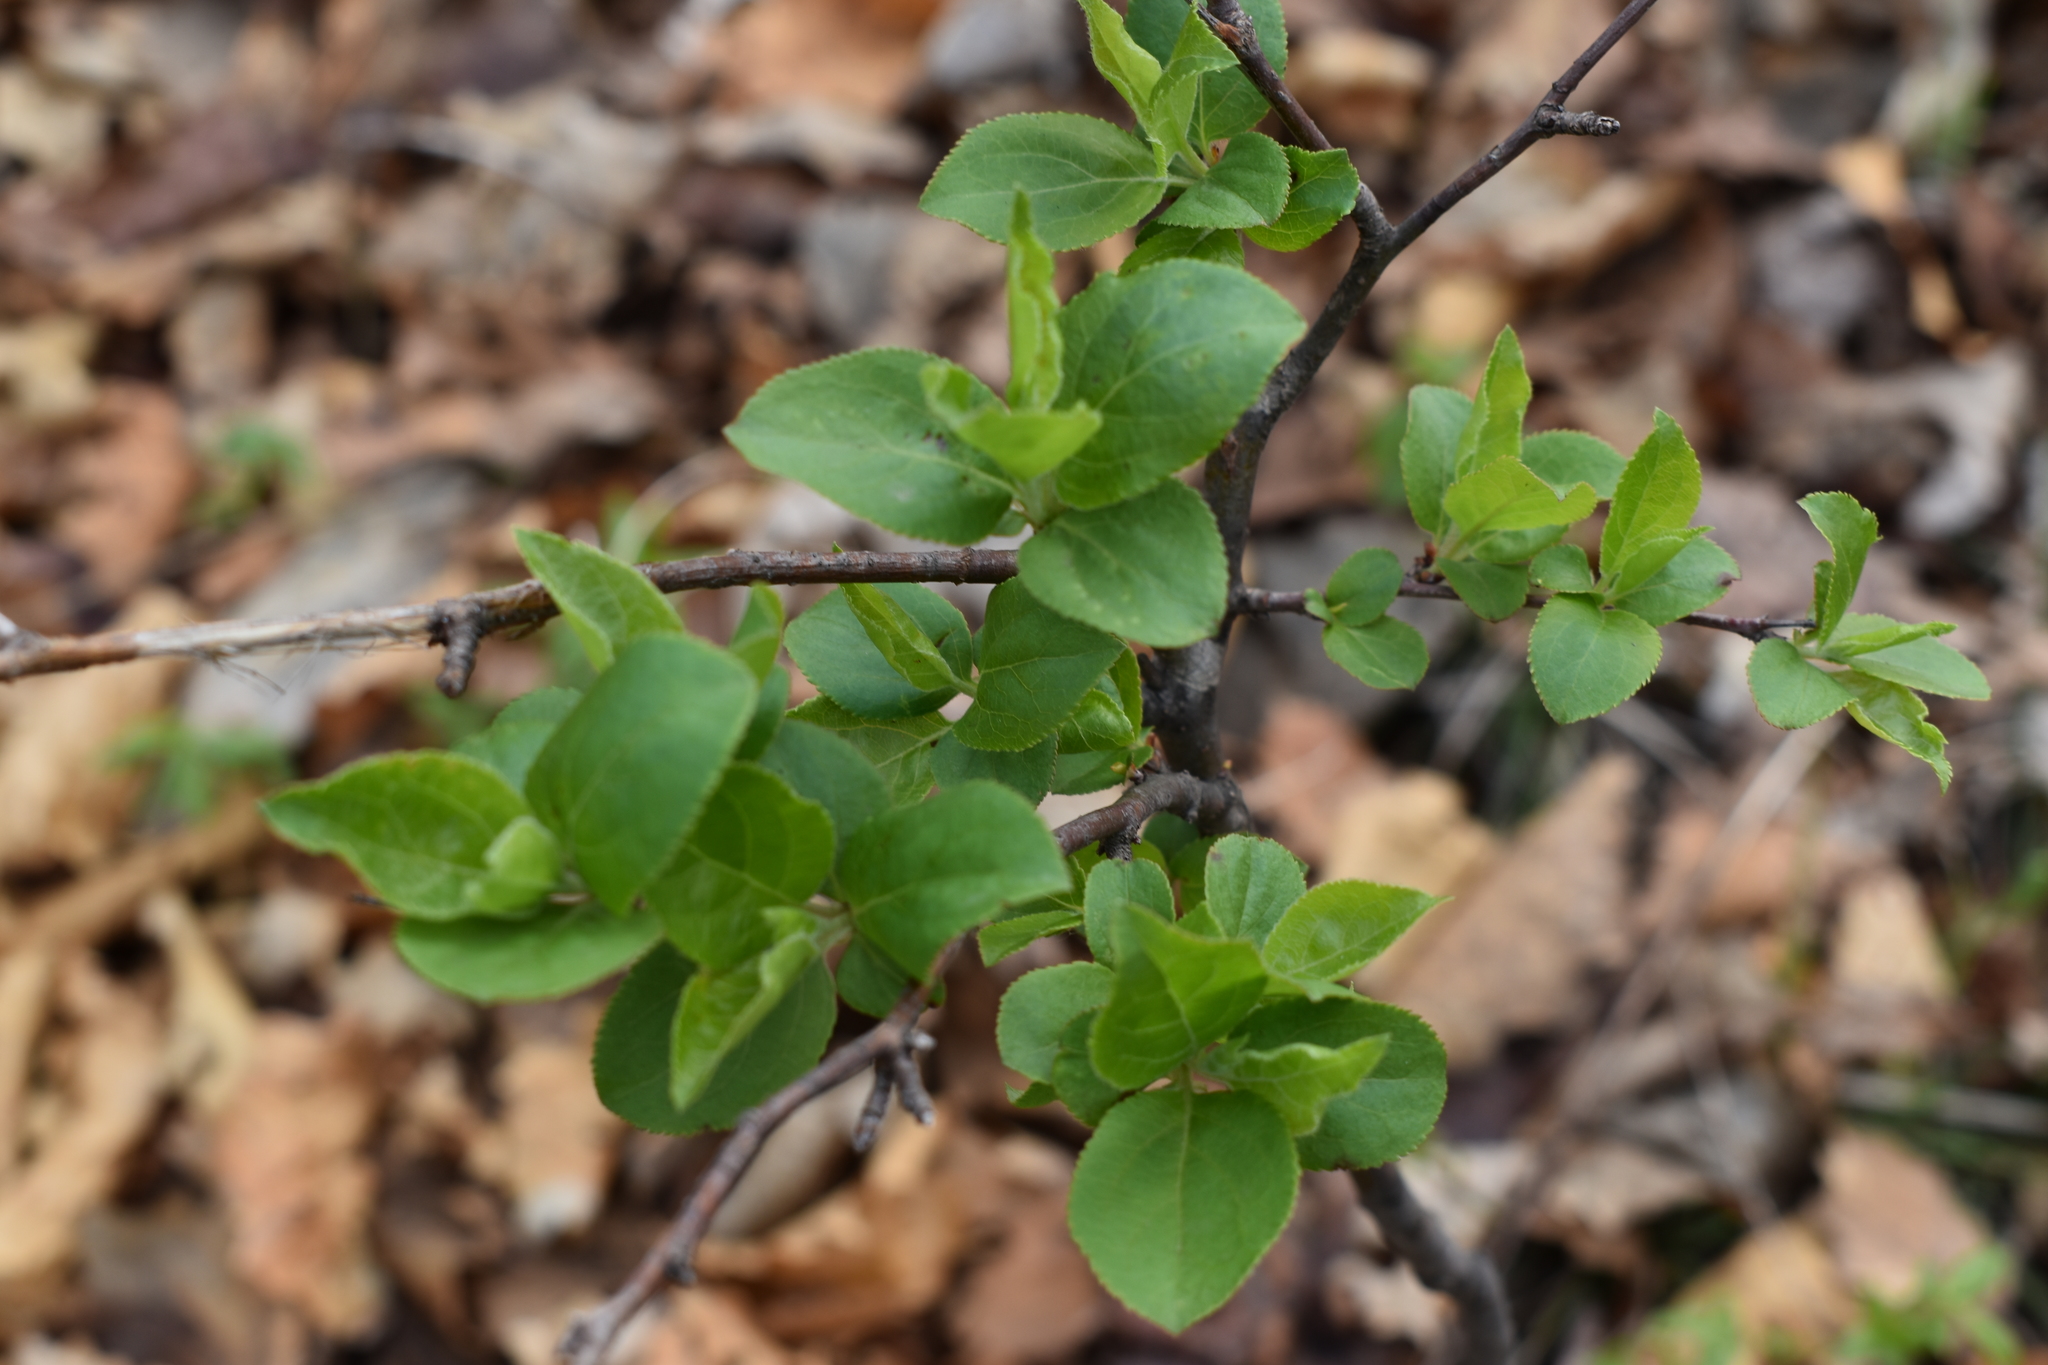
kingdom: Plantae
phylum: Tracheophyta
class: Magnoliopsida
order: Rosales
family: Rosaceae
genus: Malus
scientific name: Malus baccata
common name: Siberian crab
